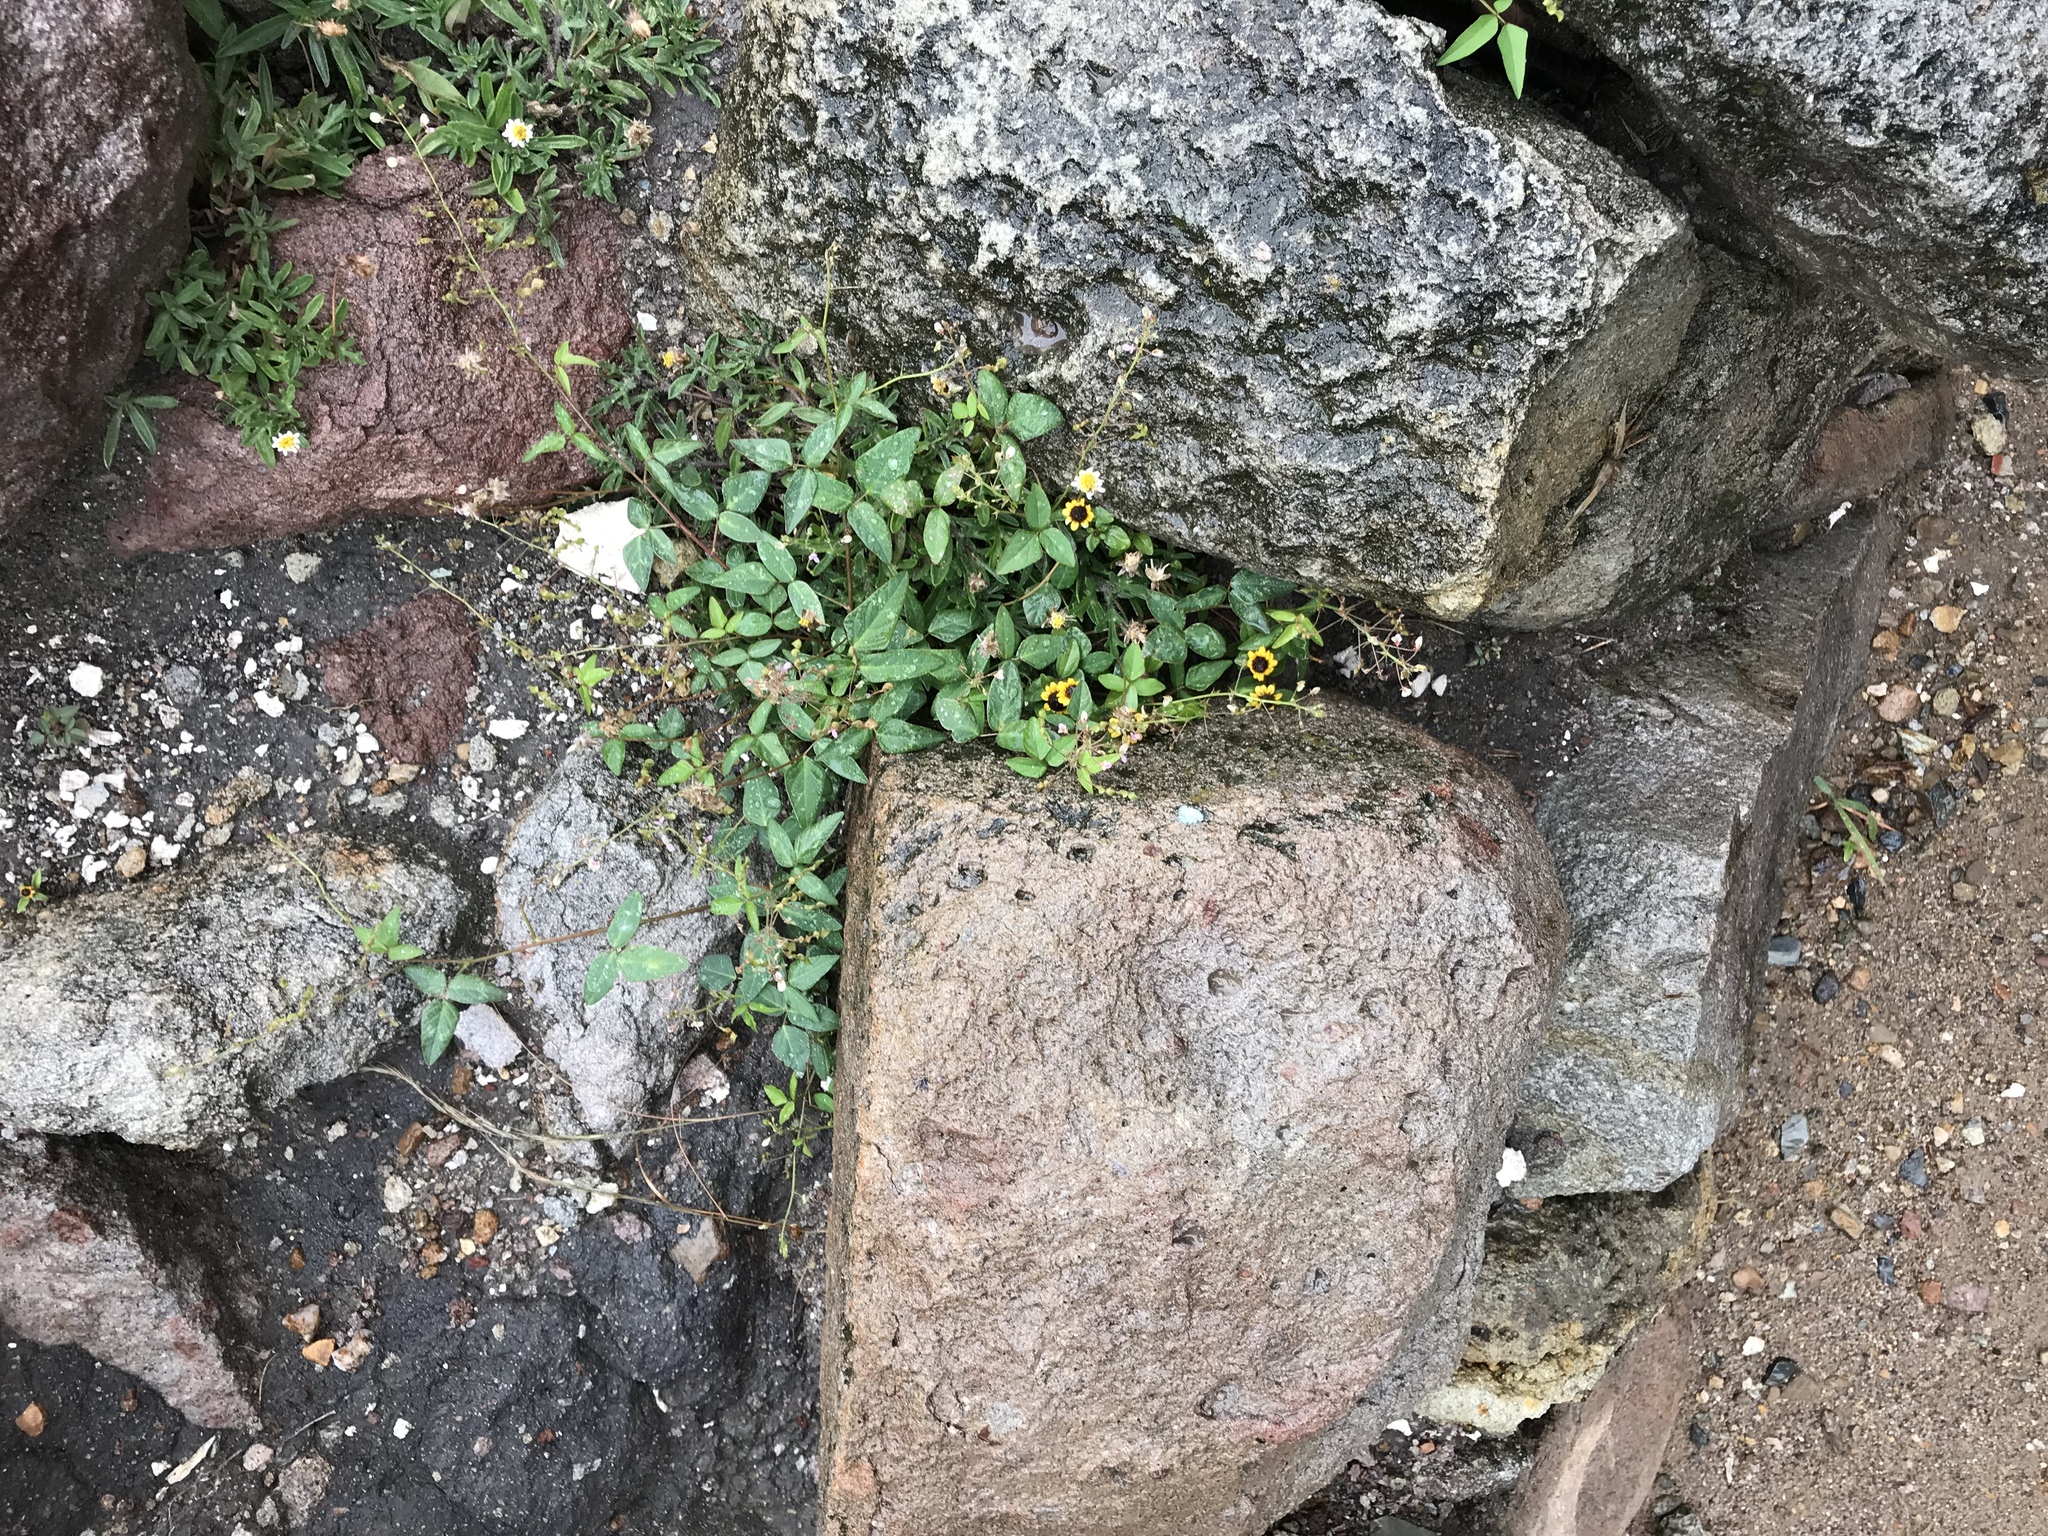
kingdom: Plantae
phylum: Tracheophyta
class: Magnoliopsida
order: Asterales
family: Asteraceae
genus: Sanvitalia
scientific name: Sanvitalia procumbens
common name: Mexican creeping zinnia
